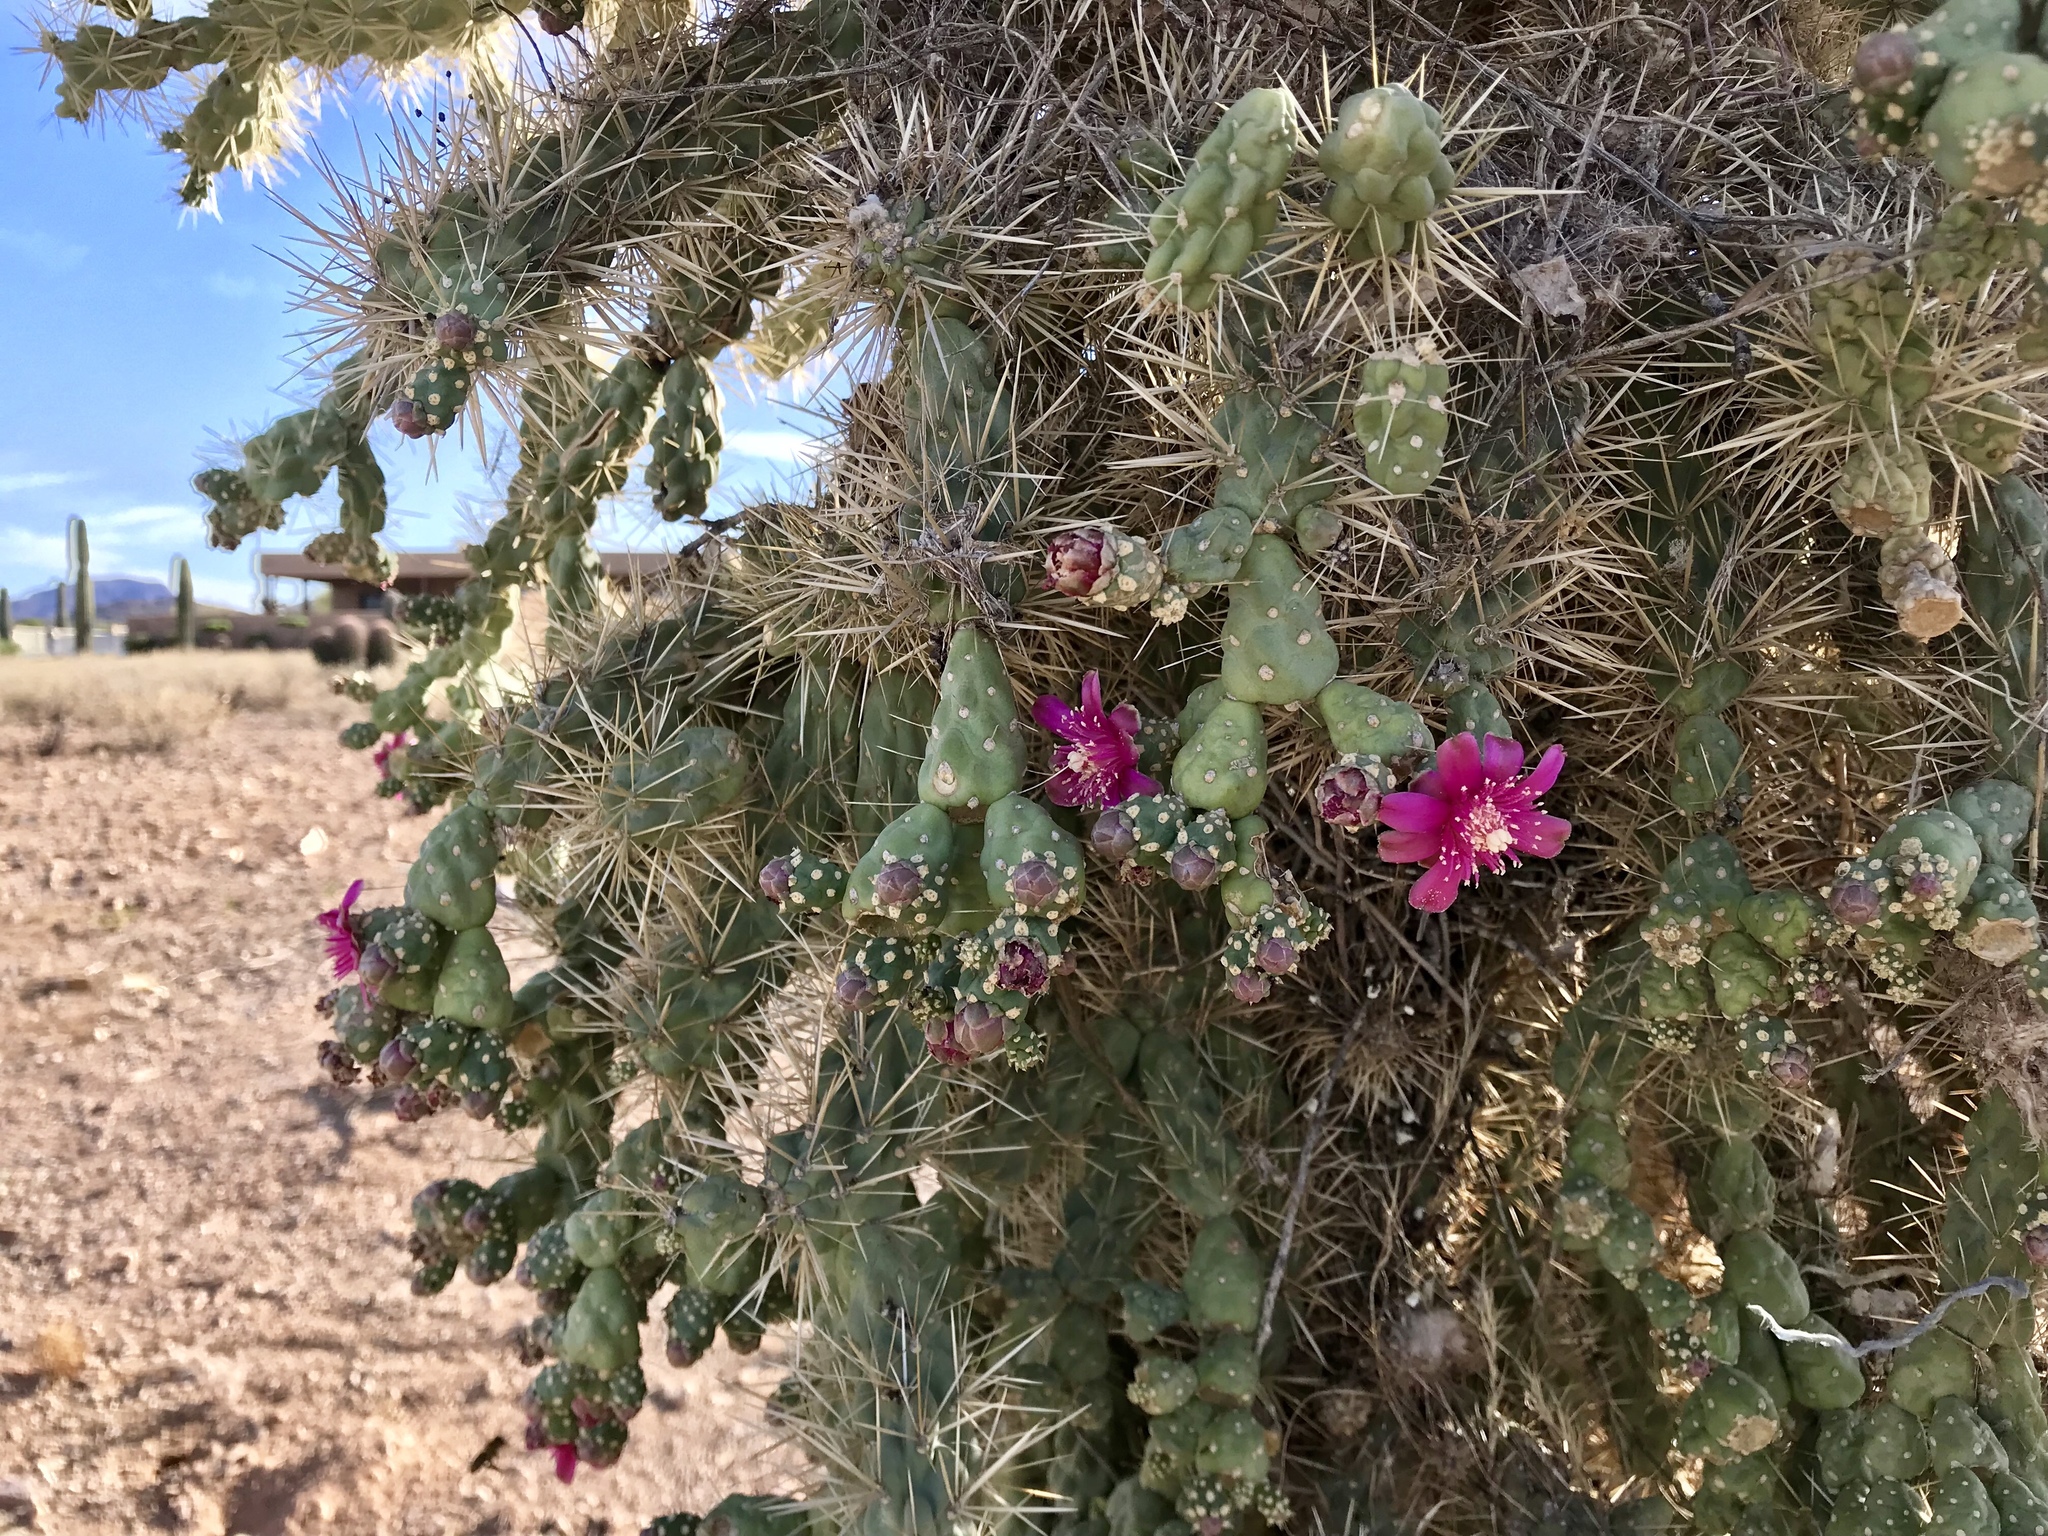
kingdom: Plantae
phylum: Tracheophyta
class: Magnoliopsida
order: Caryophyllales
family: Cactaceae
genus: Cylindropuntia
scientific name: Cylindropuntia fulgida
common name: Jumping cholla
